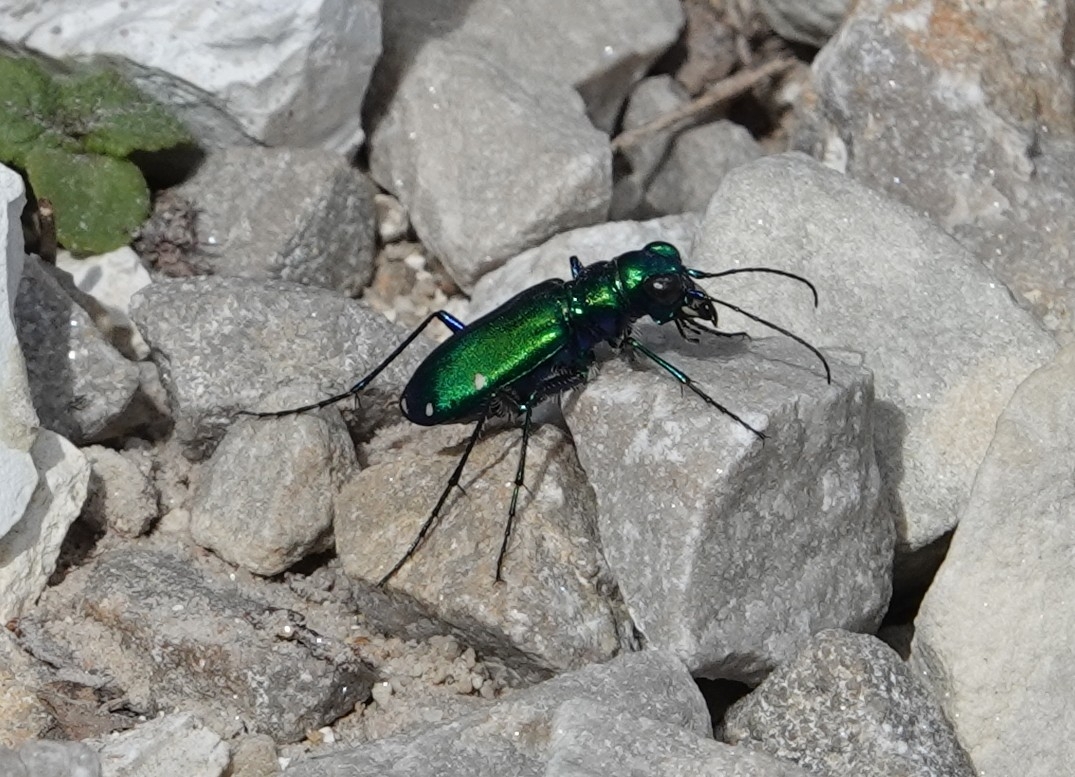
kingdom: Animalia
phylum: Arthropoda
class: Insecta
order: Coleoptera
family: Carabidae
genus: Cicindela
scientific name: Cicindela sexguttata
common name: Six-spotted tiger beetle
